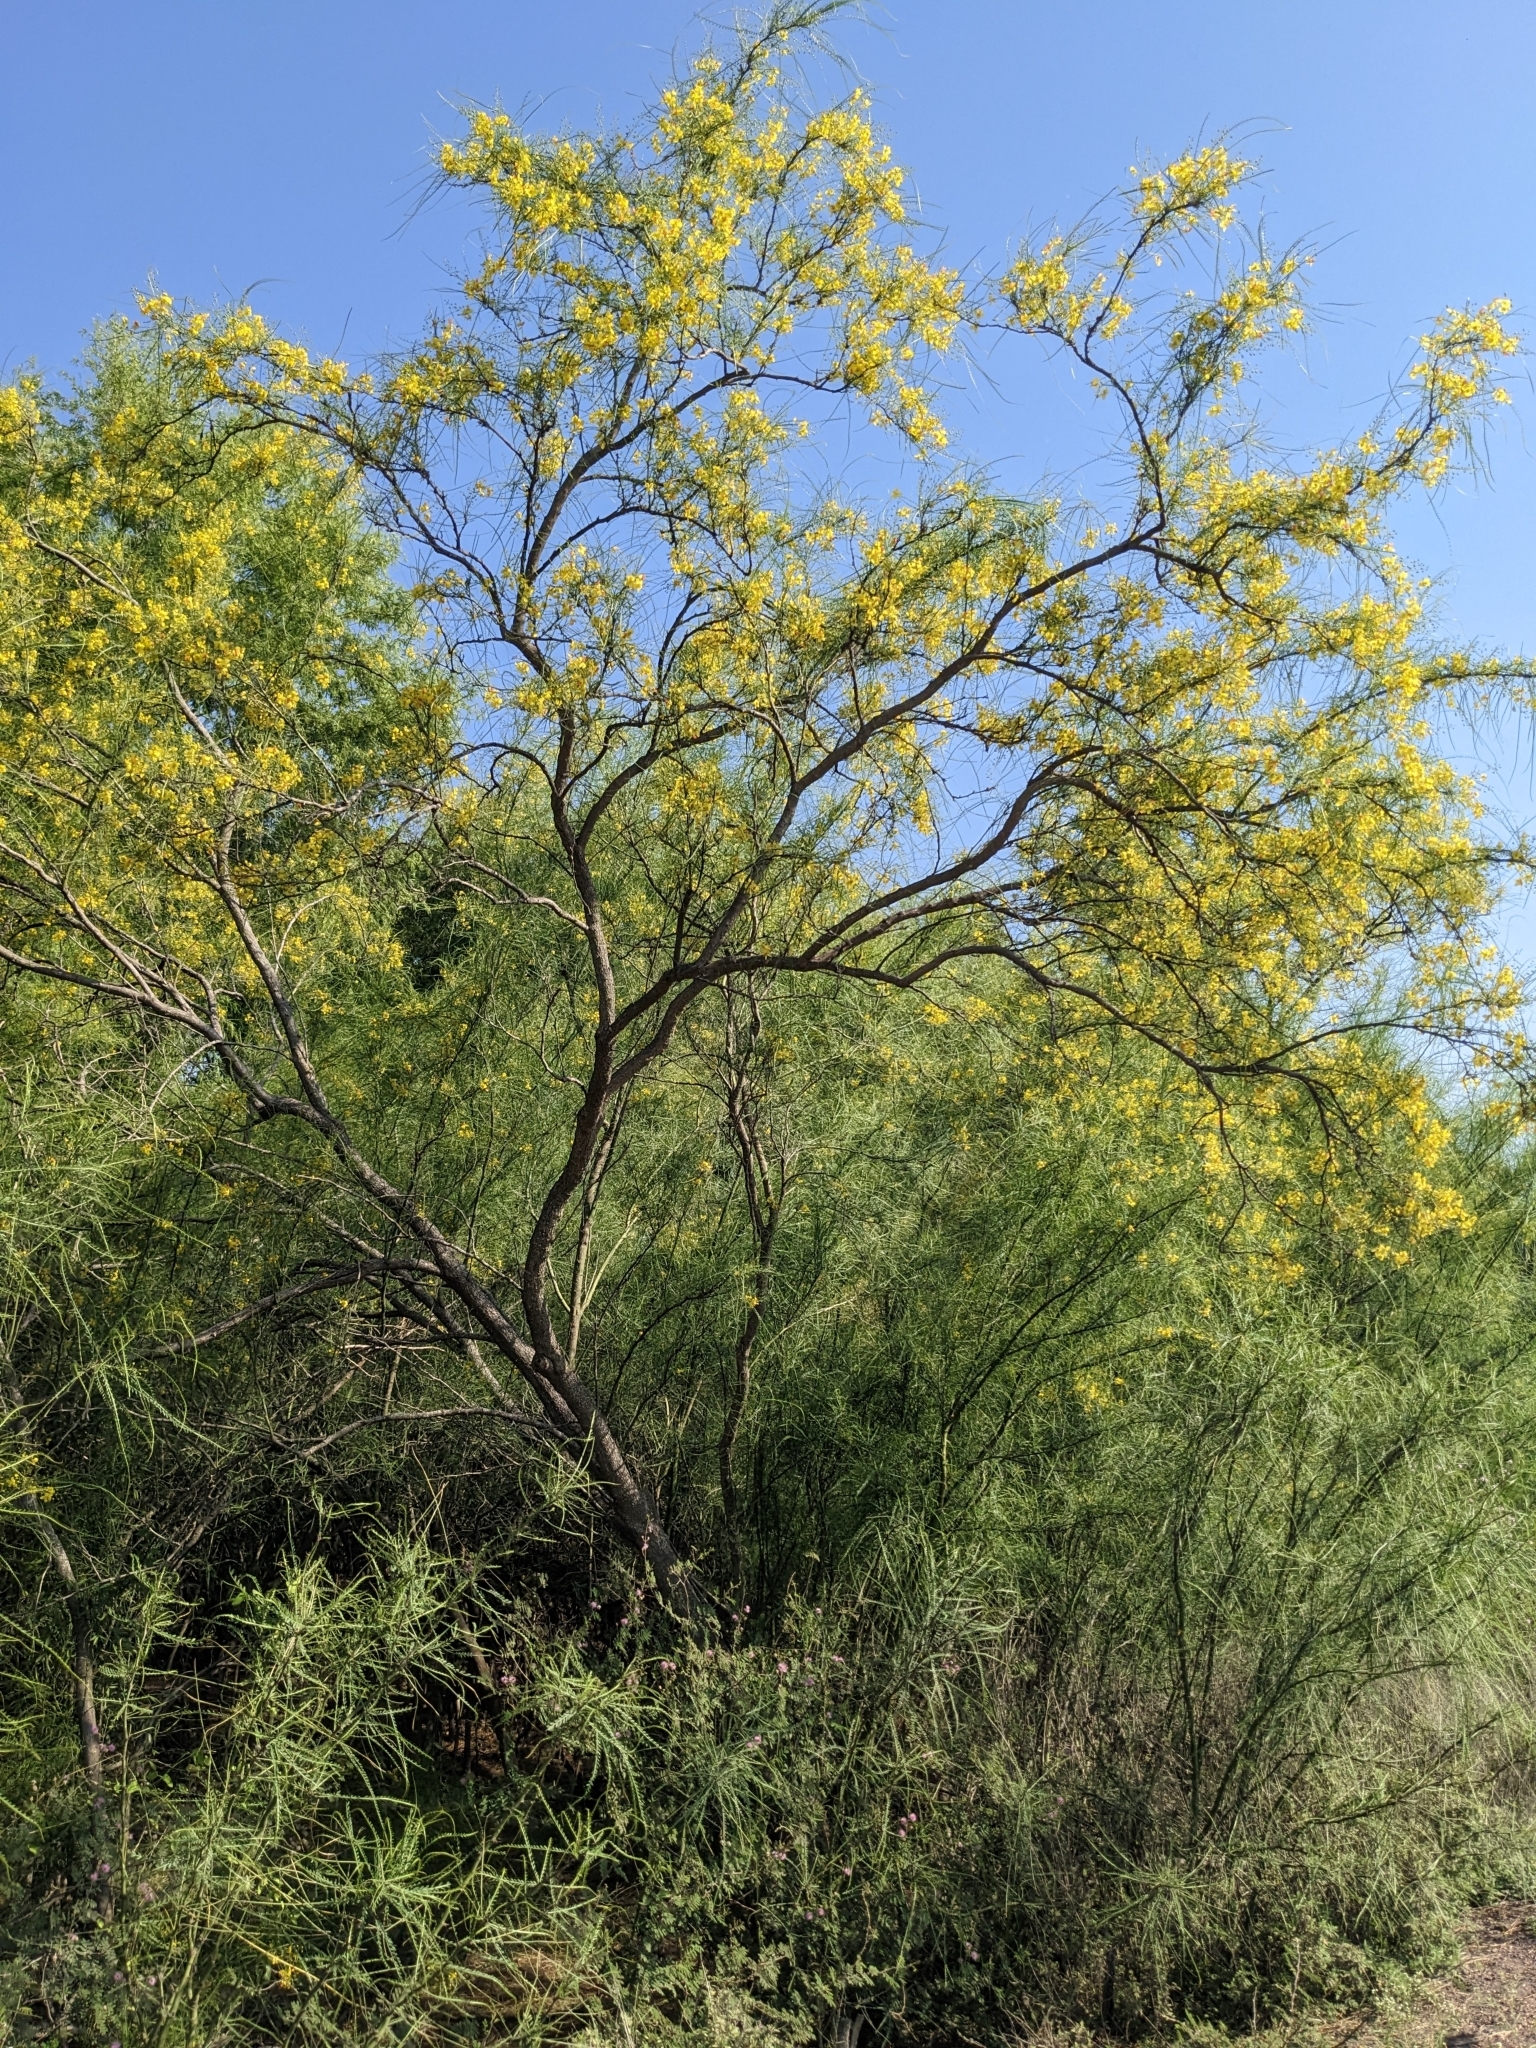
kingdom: Plantae
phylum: Tracheophyta
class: Magnoliopsida
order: Fabales
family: Fabaceae
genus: Parkinsonia
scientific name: Parkinsonia aculeata
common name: Jerusalem thorn
